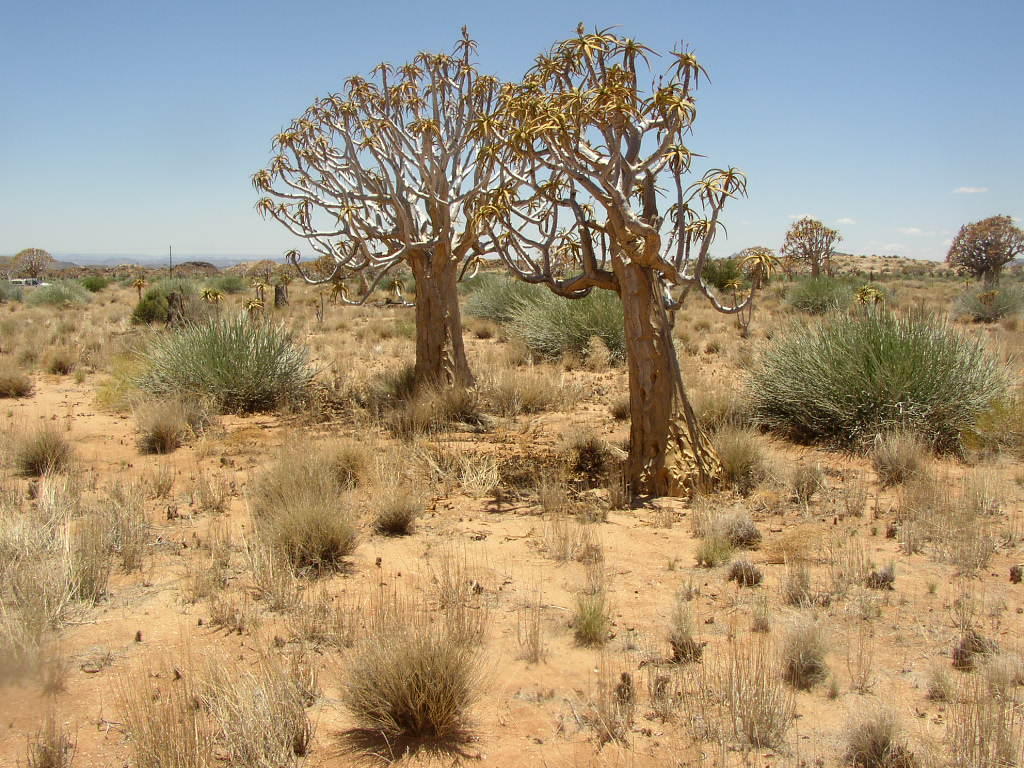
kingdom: Plantae
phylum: Tracheophyta
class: Liliopsida
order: Asparagales
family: Asphodelaceae
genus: Aloidendron
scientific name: Aloidendron dichotomum
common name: Quiver tree
